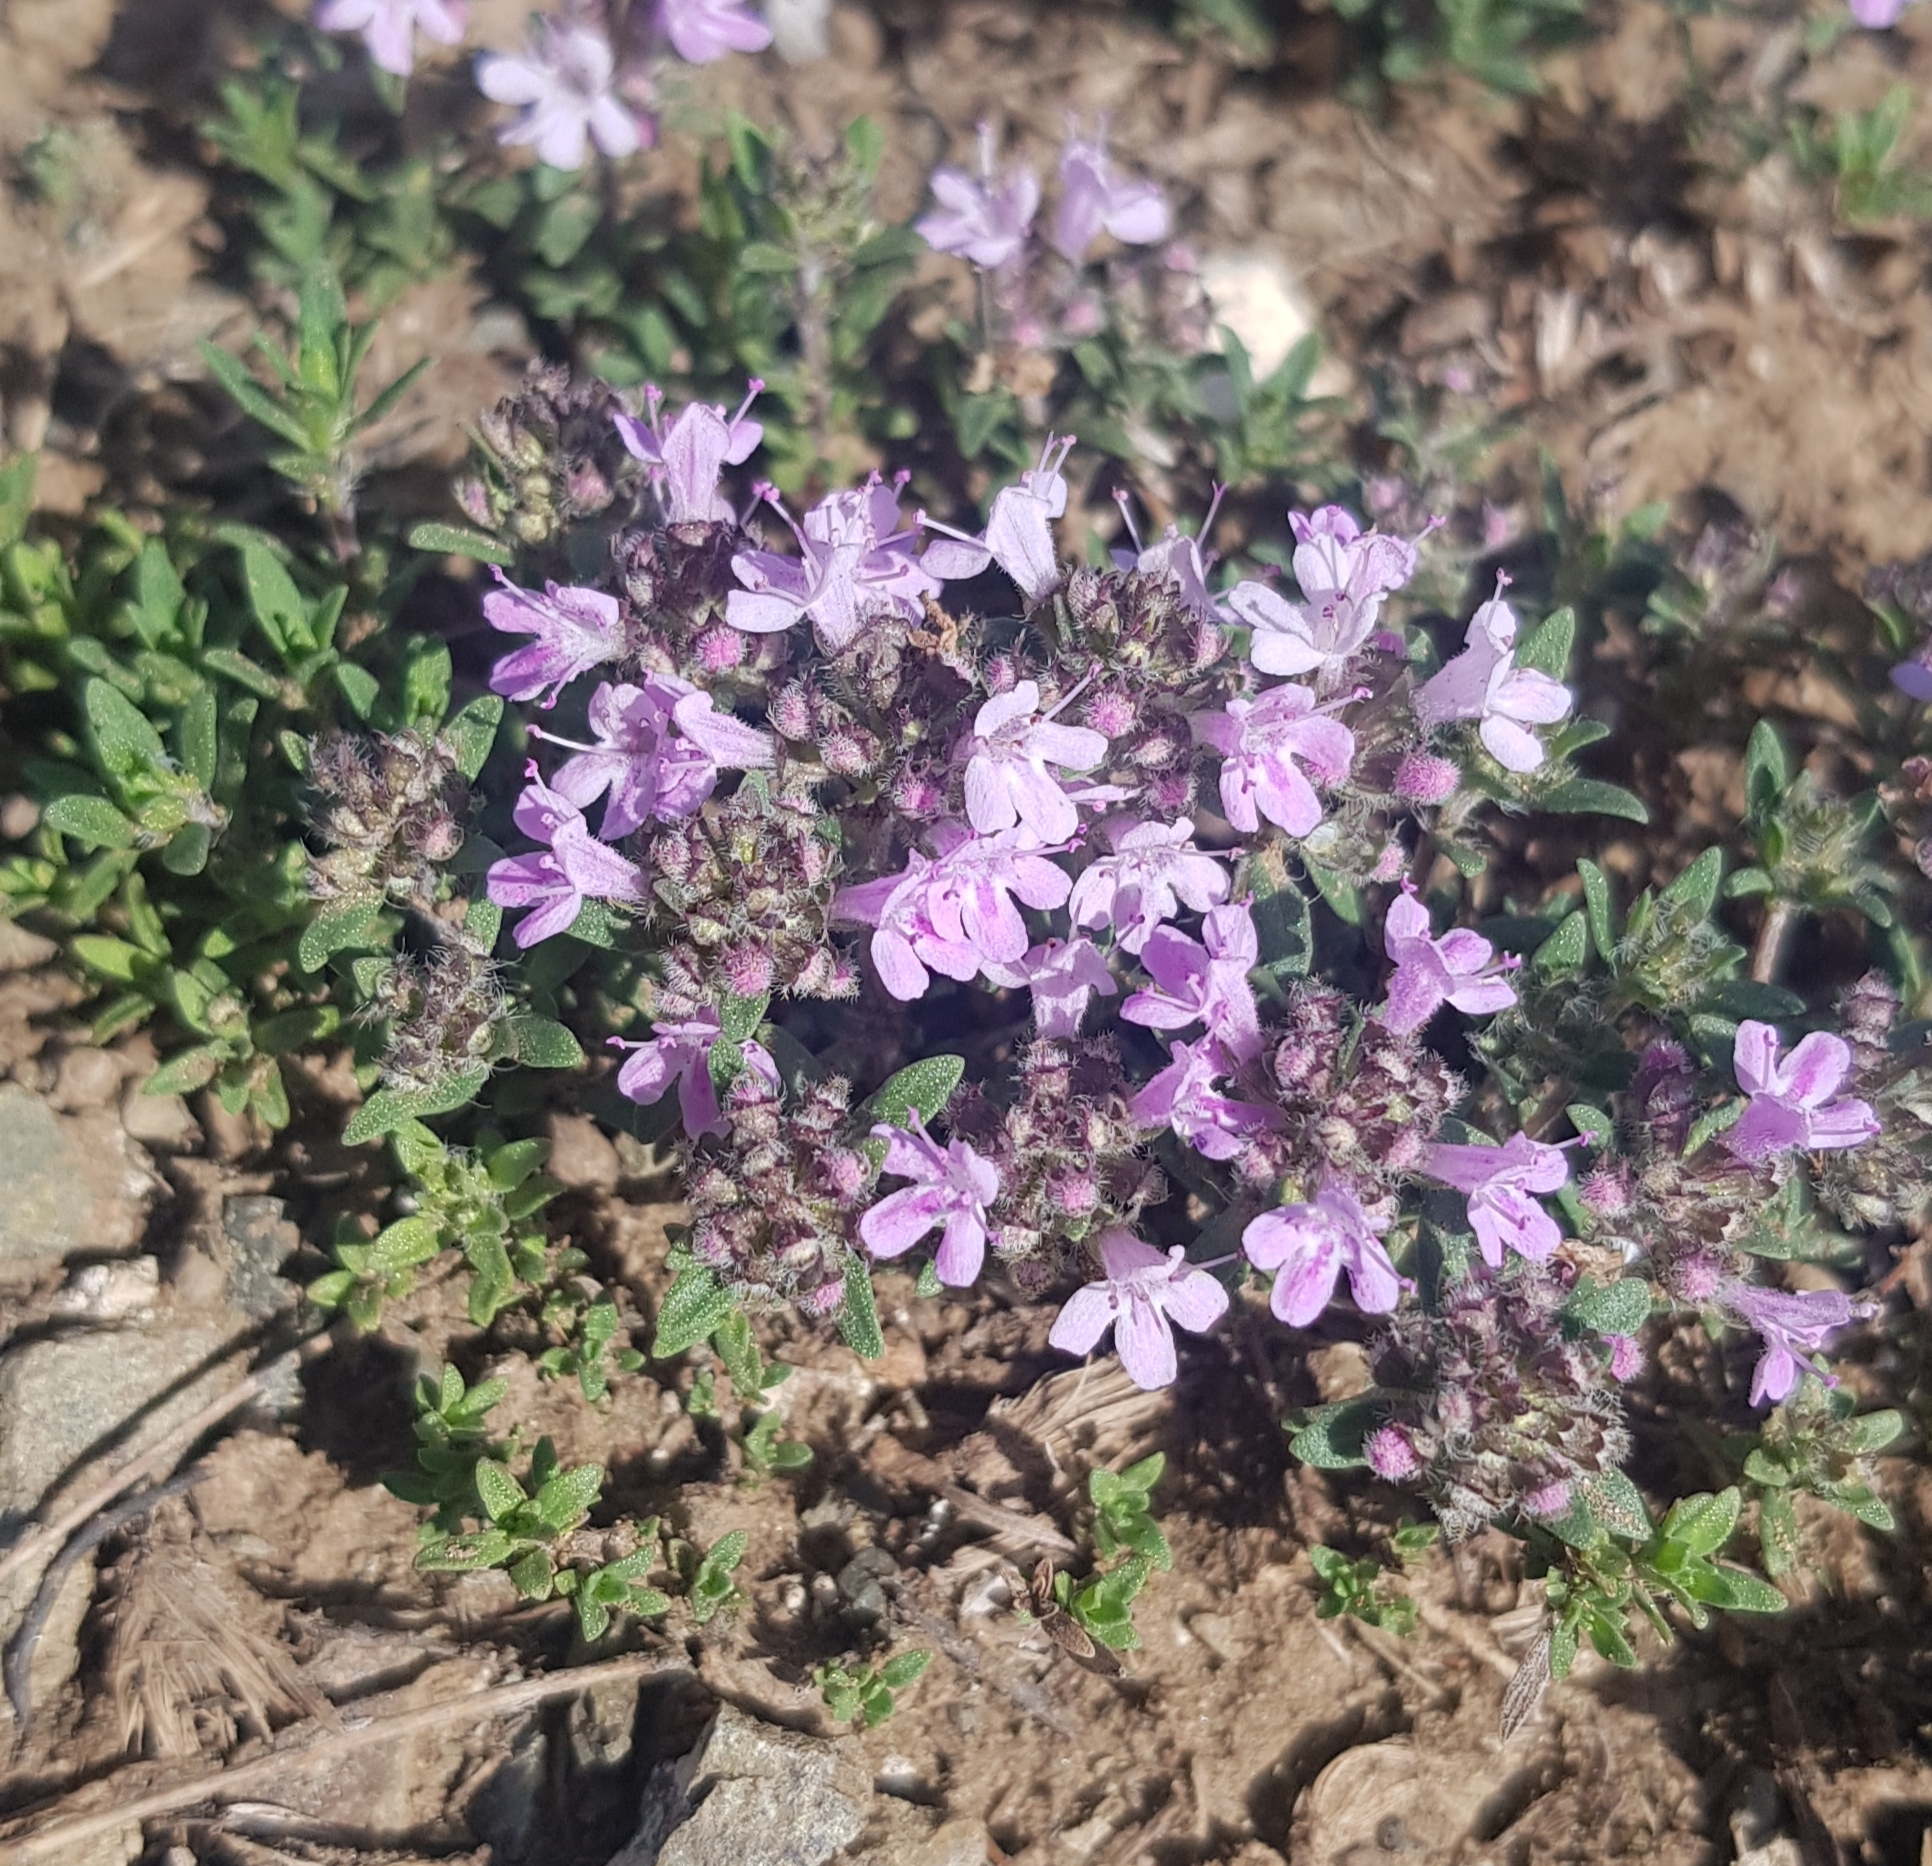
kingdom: Plantae
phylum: Tracheophyta
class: Magnoliopsida
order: Lamiales
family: Lamiaceae
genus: Thymus
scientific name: Thymus baicalensis
